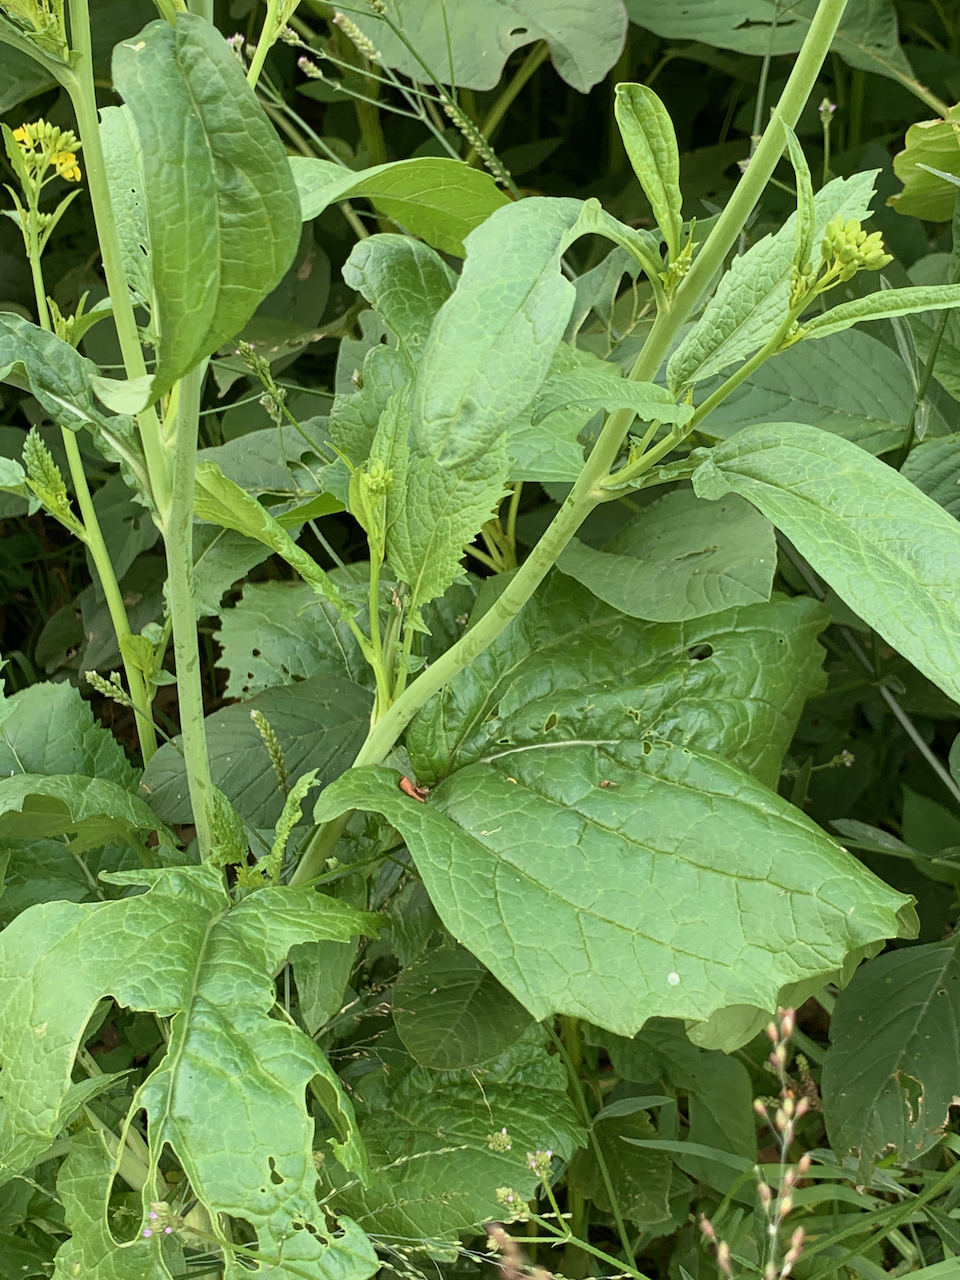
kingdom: Plantae
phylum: Tracheophyta
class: Magnoliopsida
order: Brassicales
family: Brassicaceae
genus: Brassica
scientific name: Brassica juncea
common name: Brown mustard
